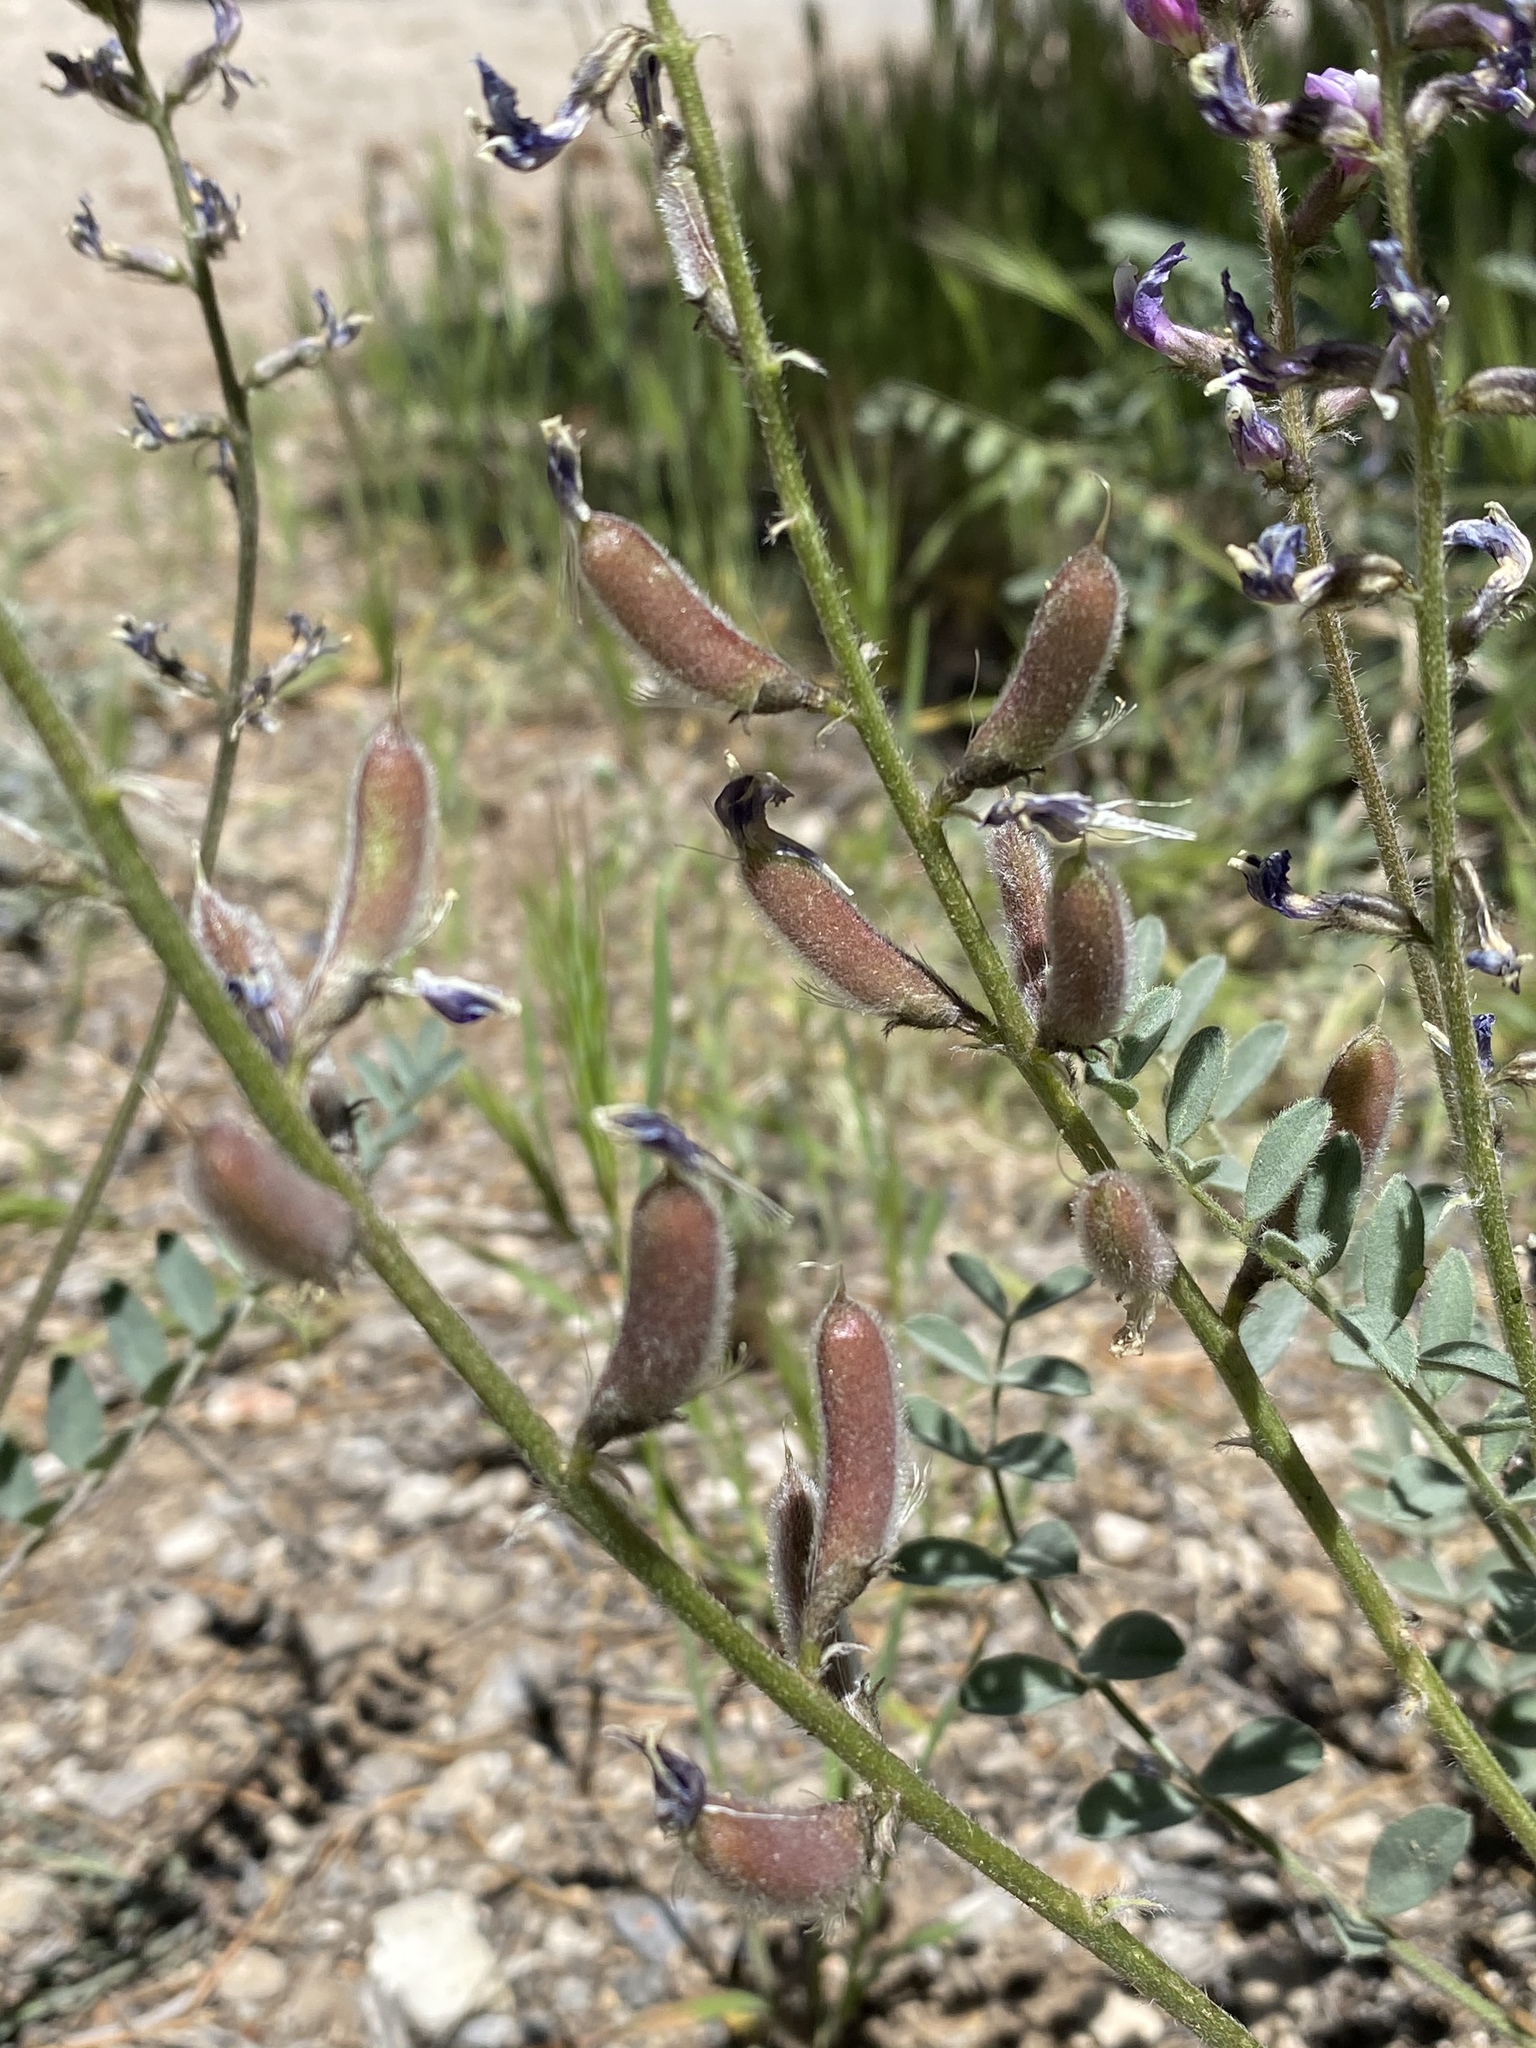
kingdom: Plantae
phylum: Tracheophyta
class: Magnoliopsida
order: Fabales
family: Fabaceae
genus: Astragalus
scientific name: Astragalus minthorniae
